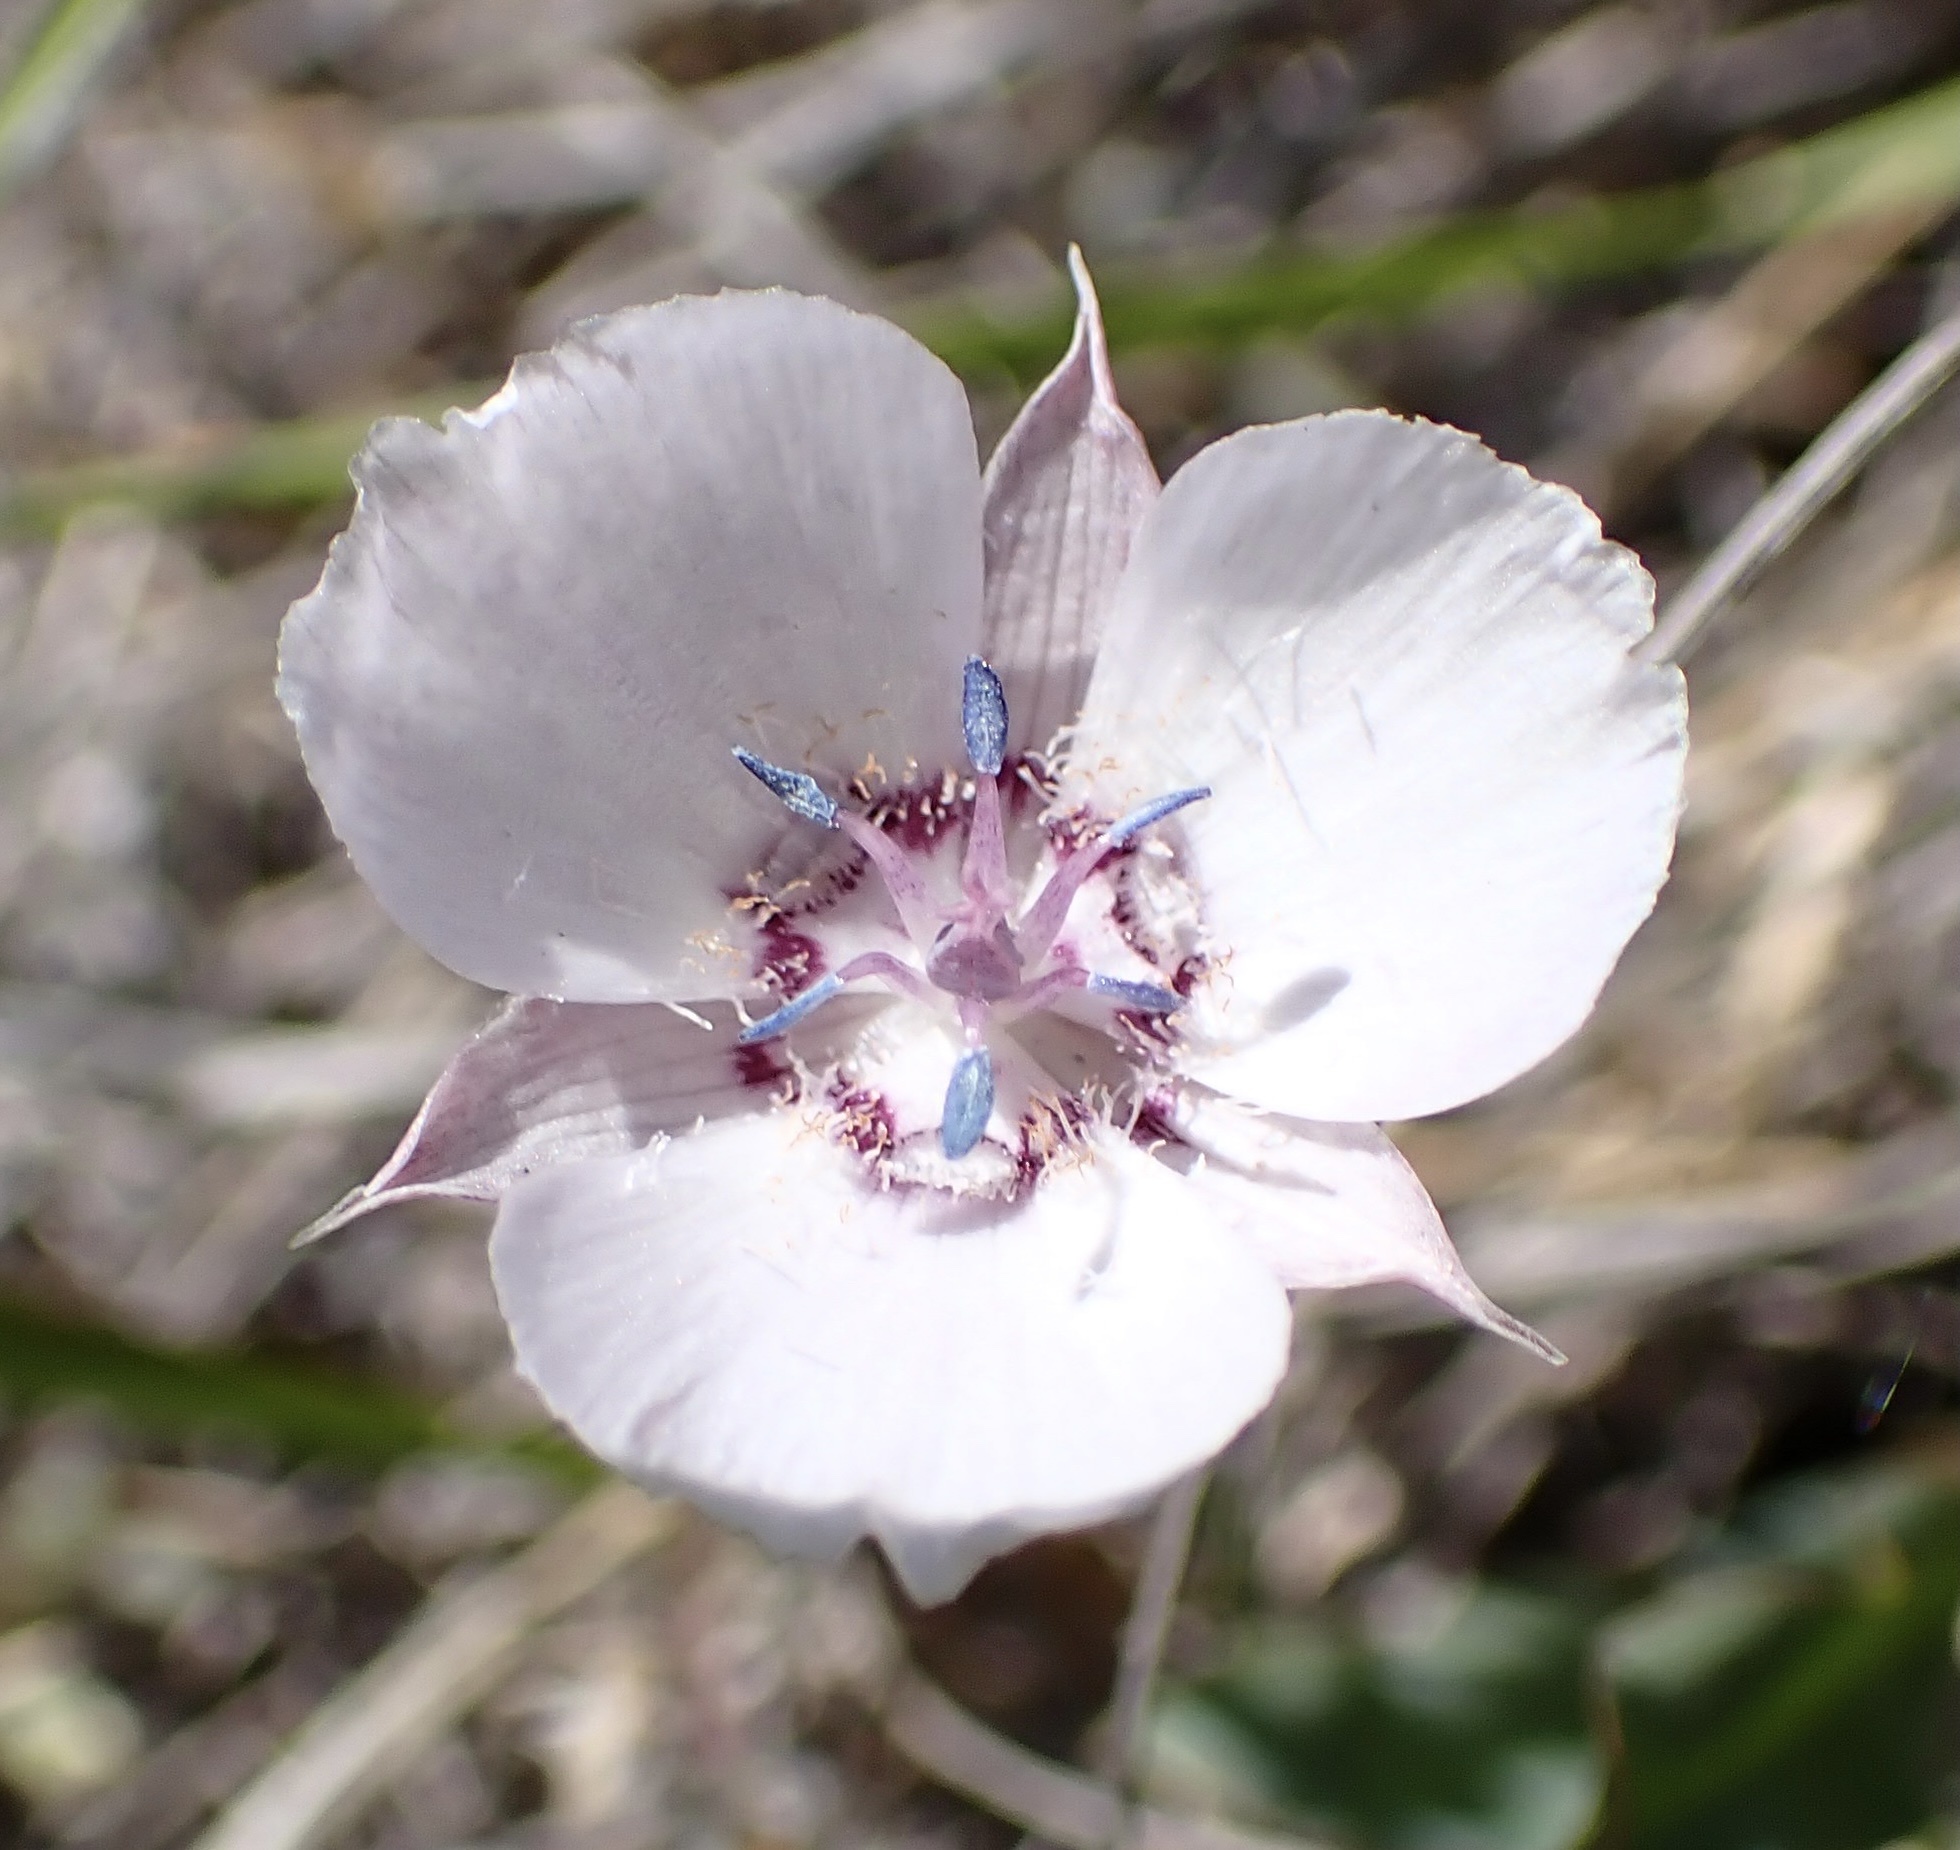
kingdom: Plantae
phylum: Tracheophyta
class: Liliopsida
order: Liliales
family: Liliaceae
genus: Calochortus
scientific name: Calochortus umbellatus
